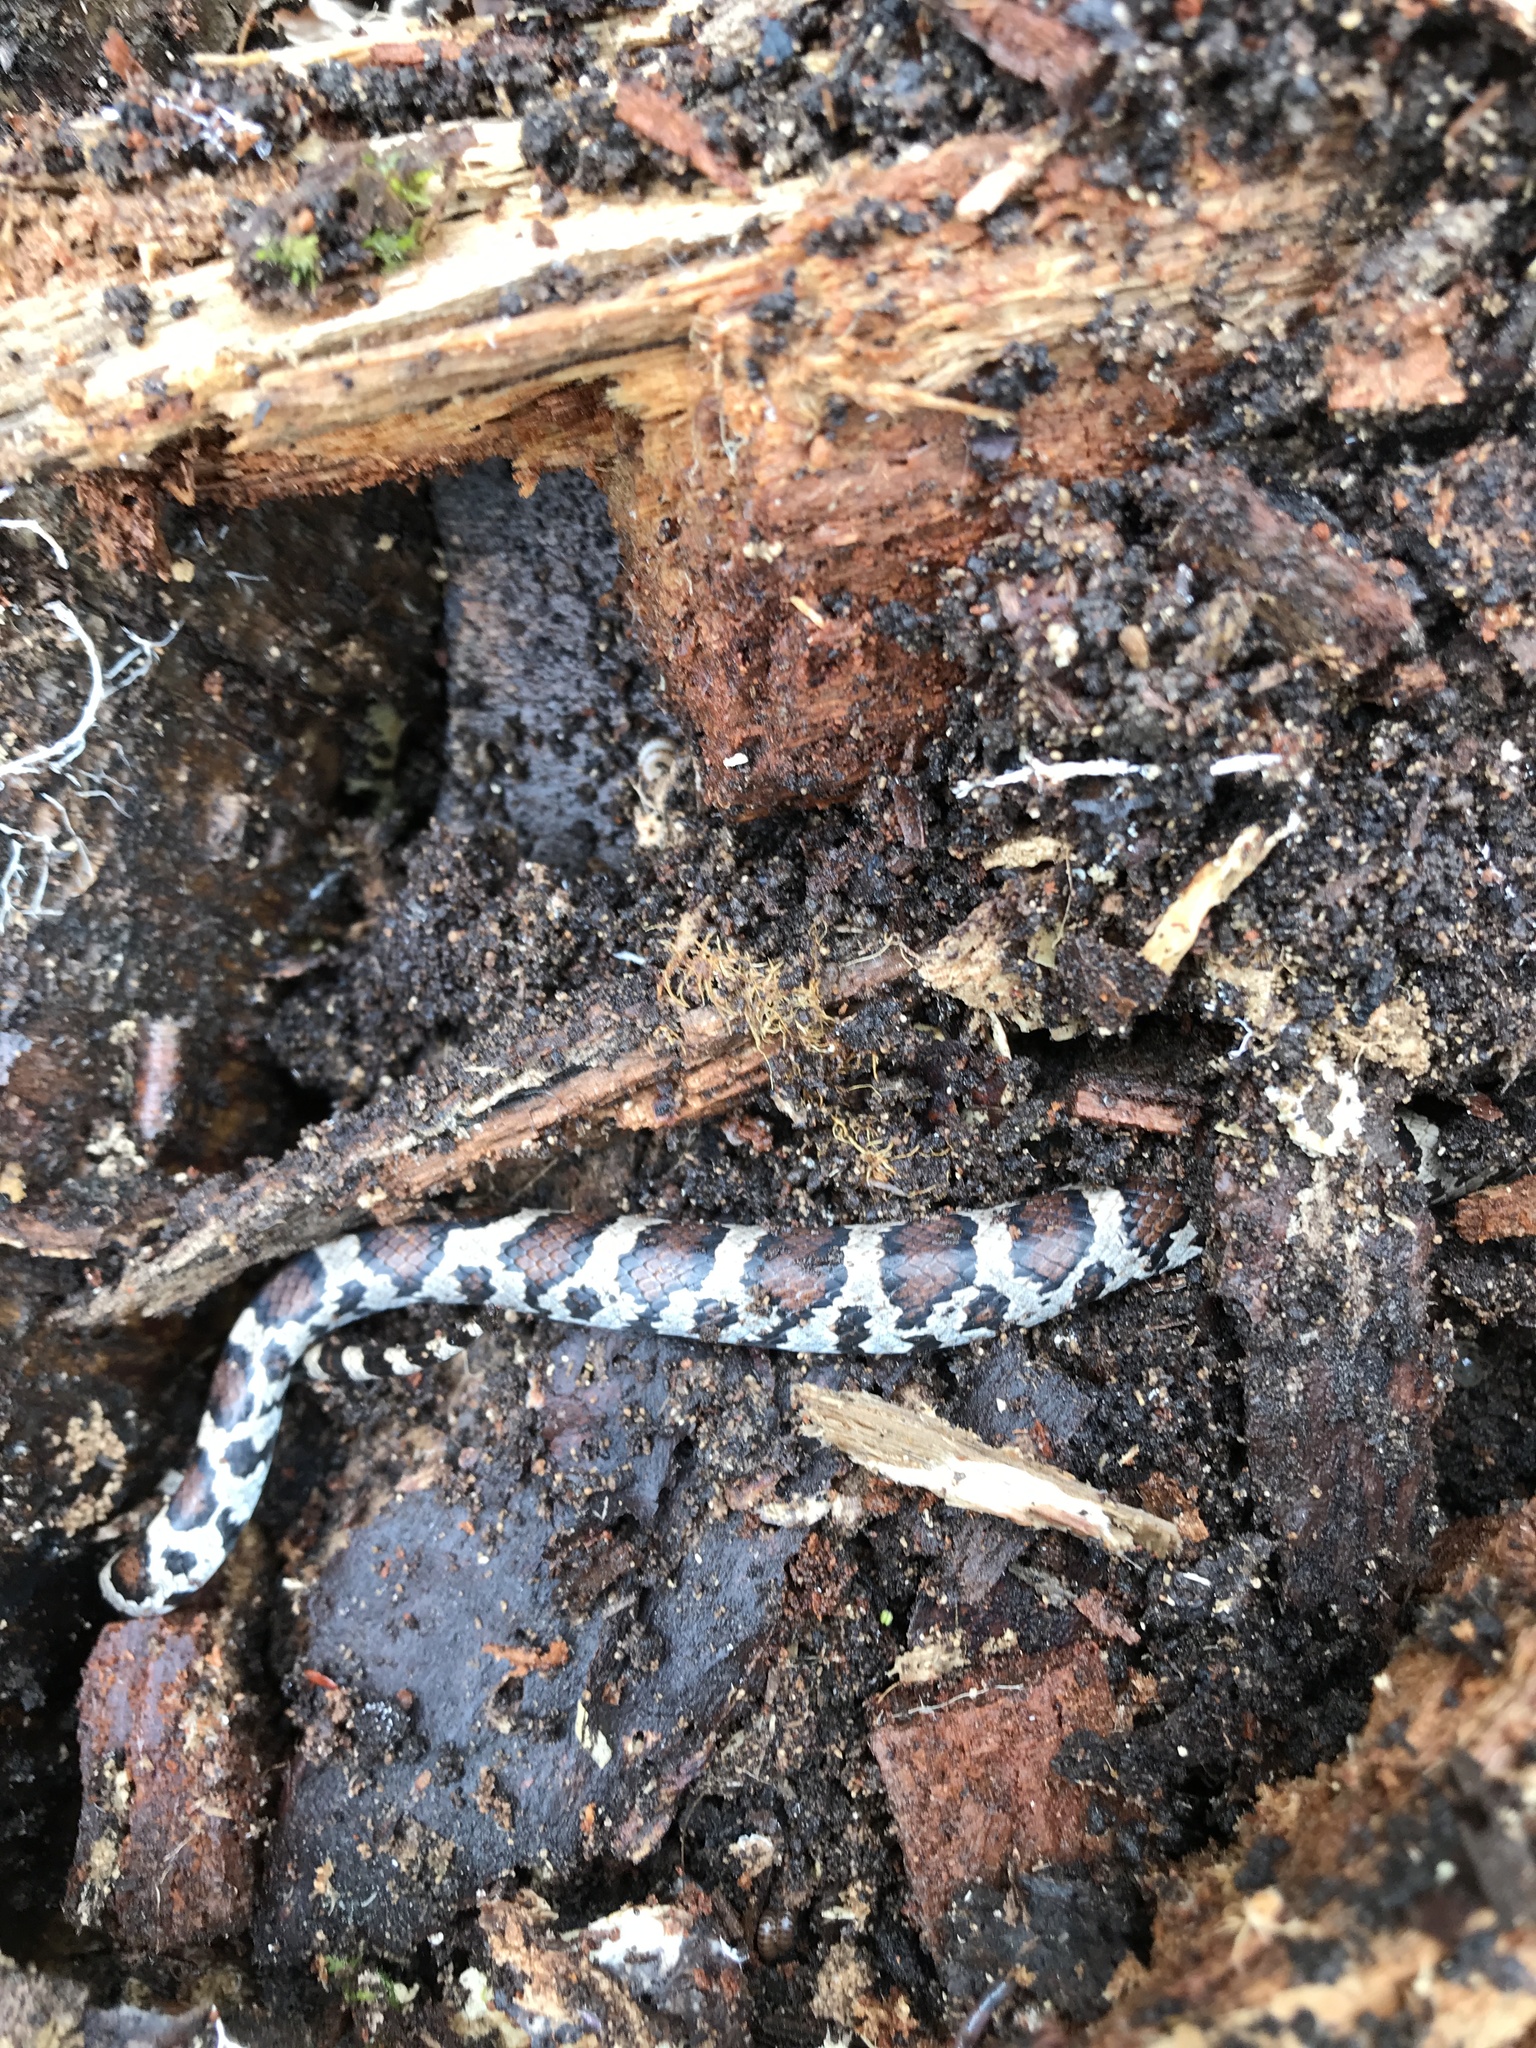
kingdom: Animalia
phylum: Chordata
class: Squamata
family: Colubridae
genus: Lampropeltis
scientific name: Lampropeltis triangulum
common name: Eastern milksnake
